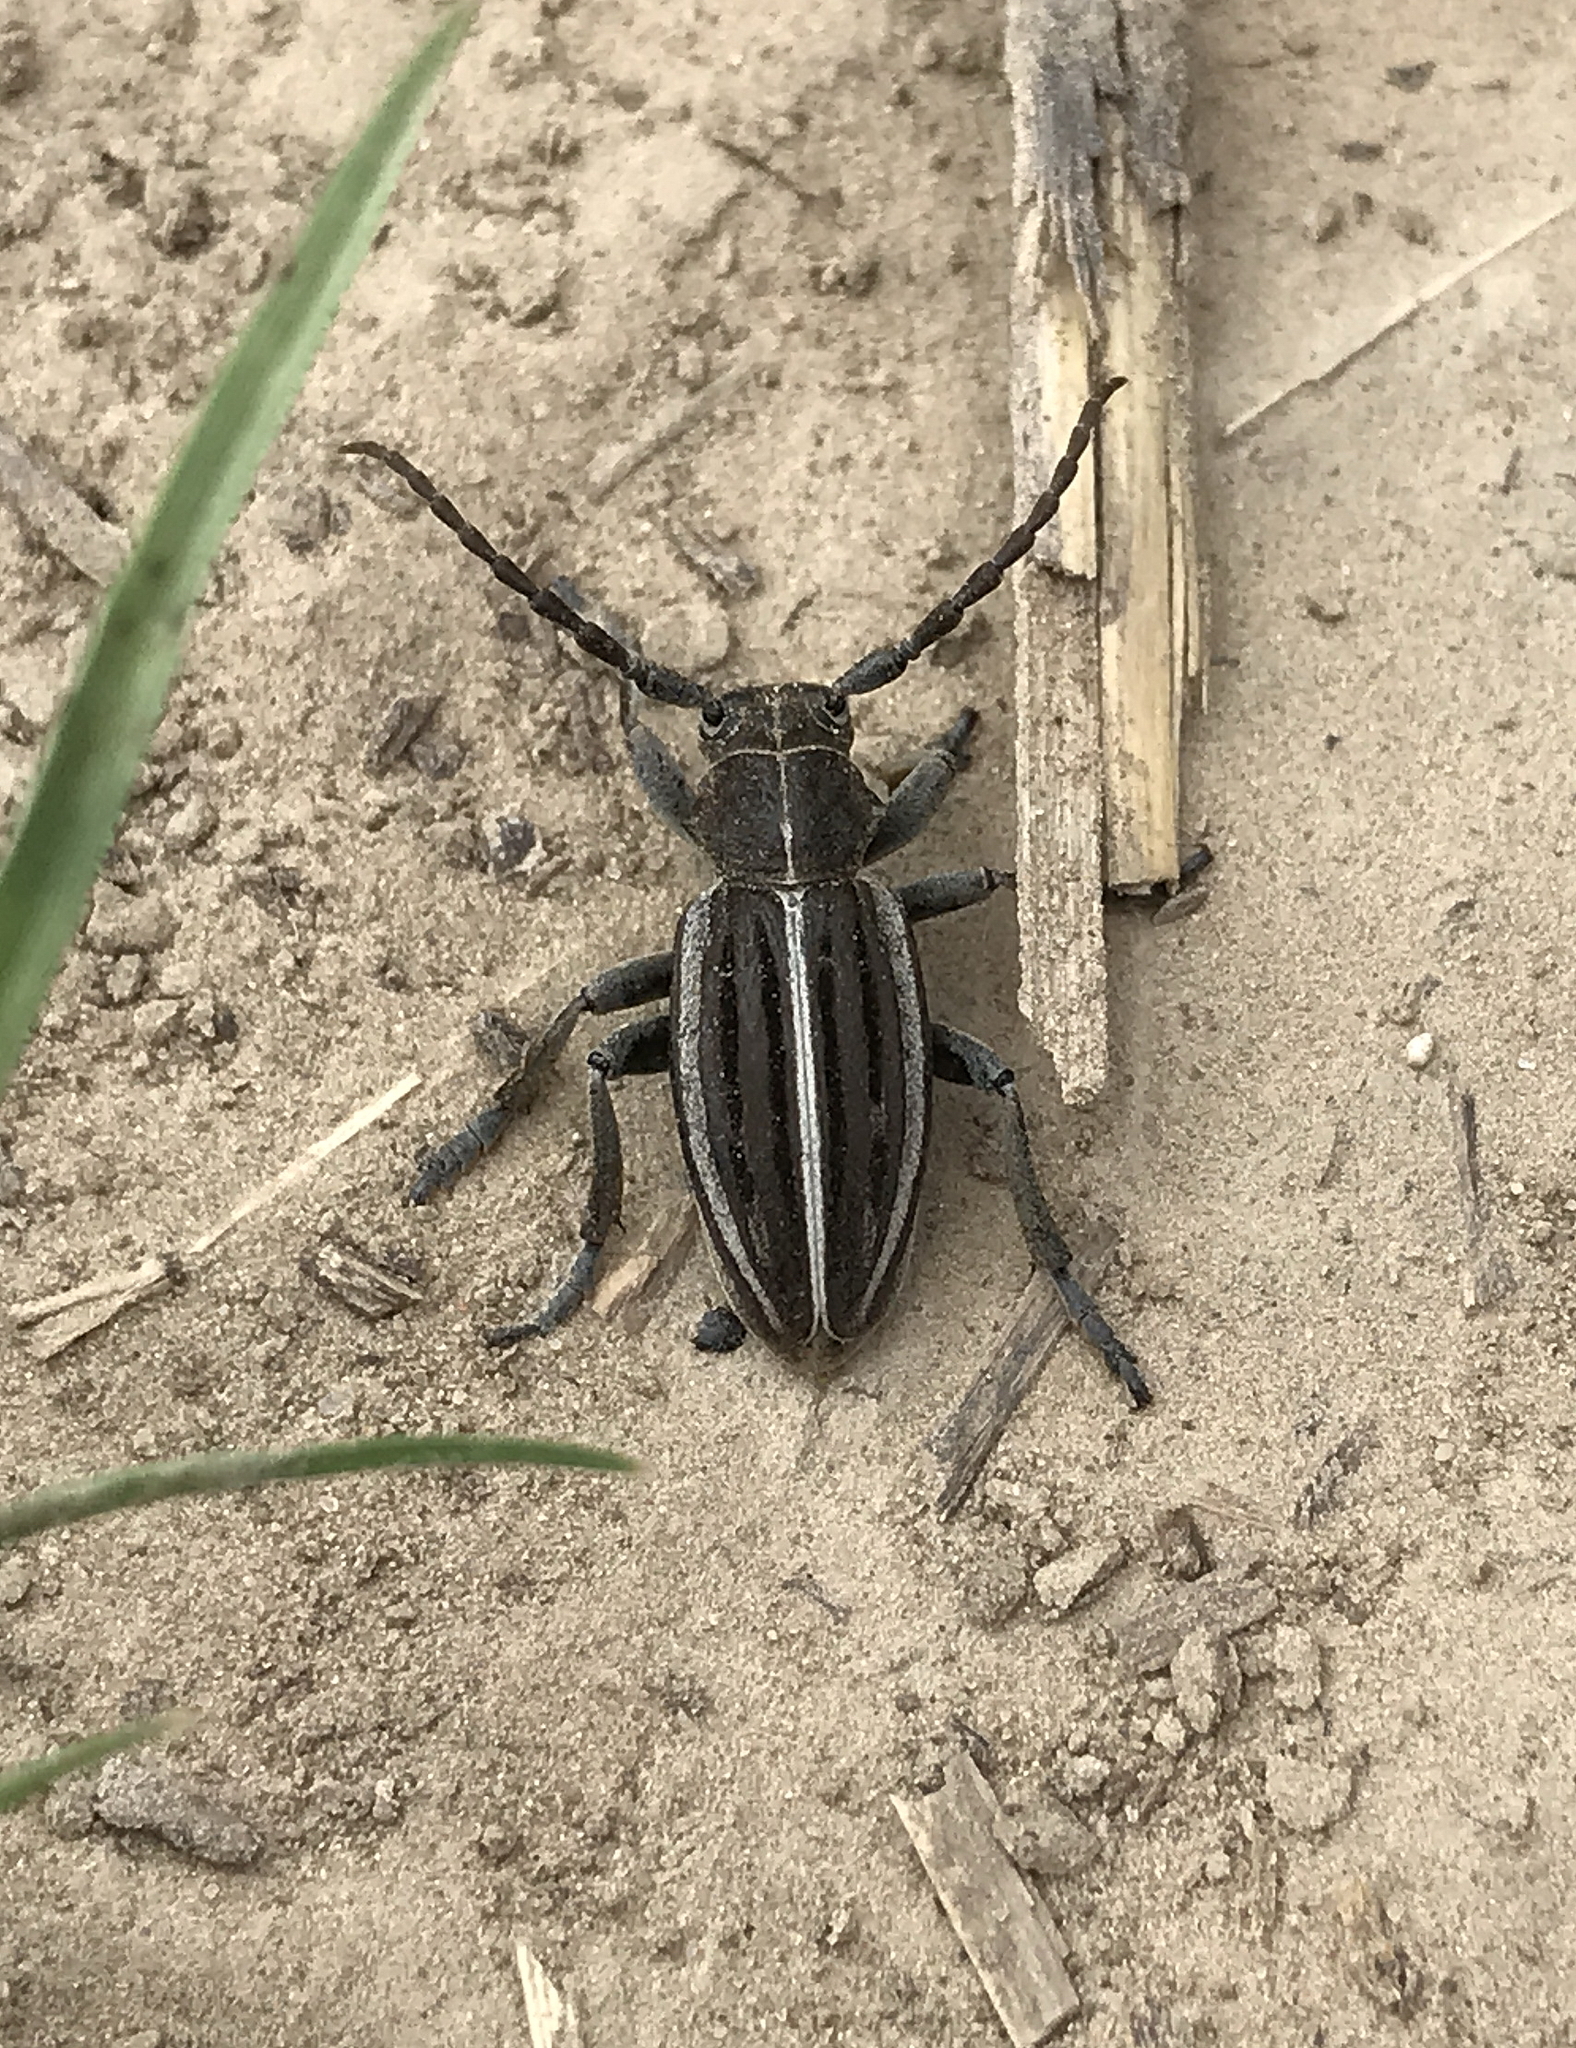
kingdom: Animalia
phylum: Arthropoda
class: Insecta
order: Coleoptera
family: Cerambycidae
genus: Dorcadion
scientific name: Dorcadion holosericeum
